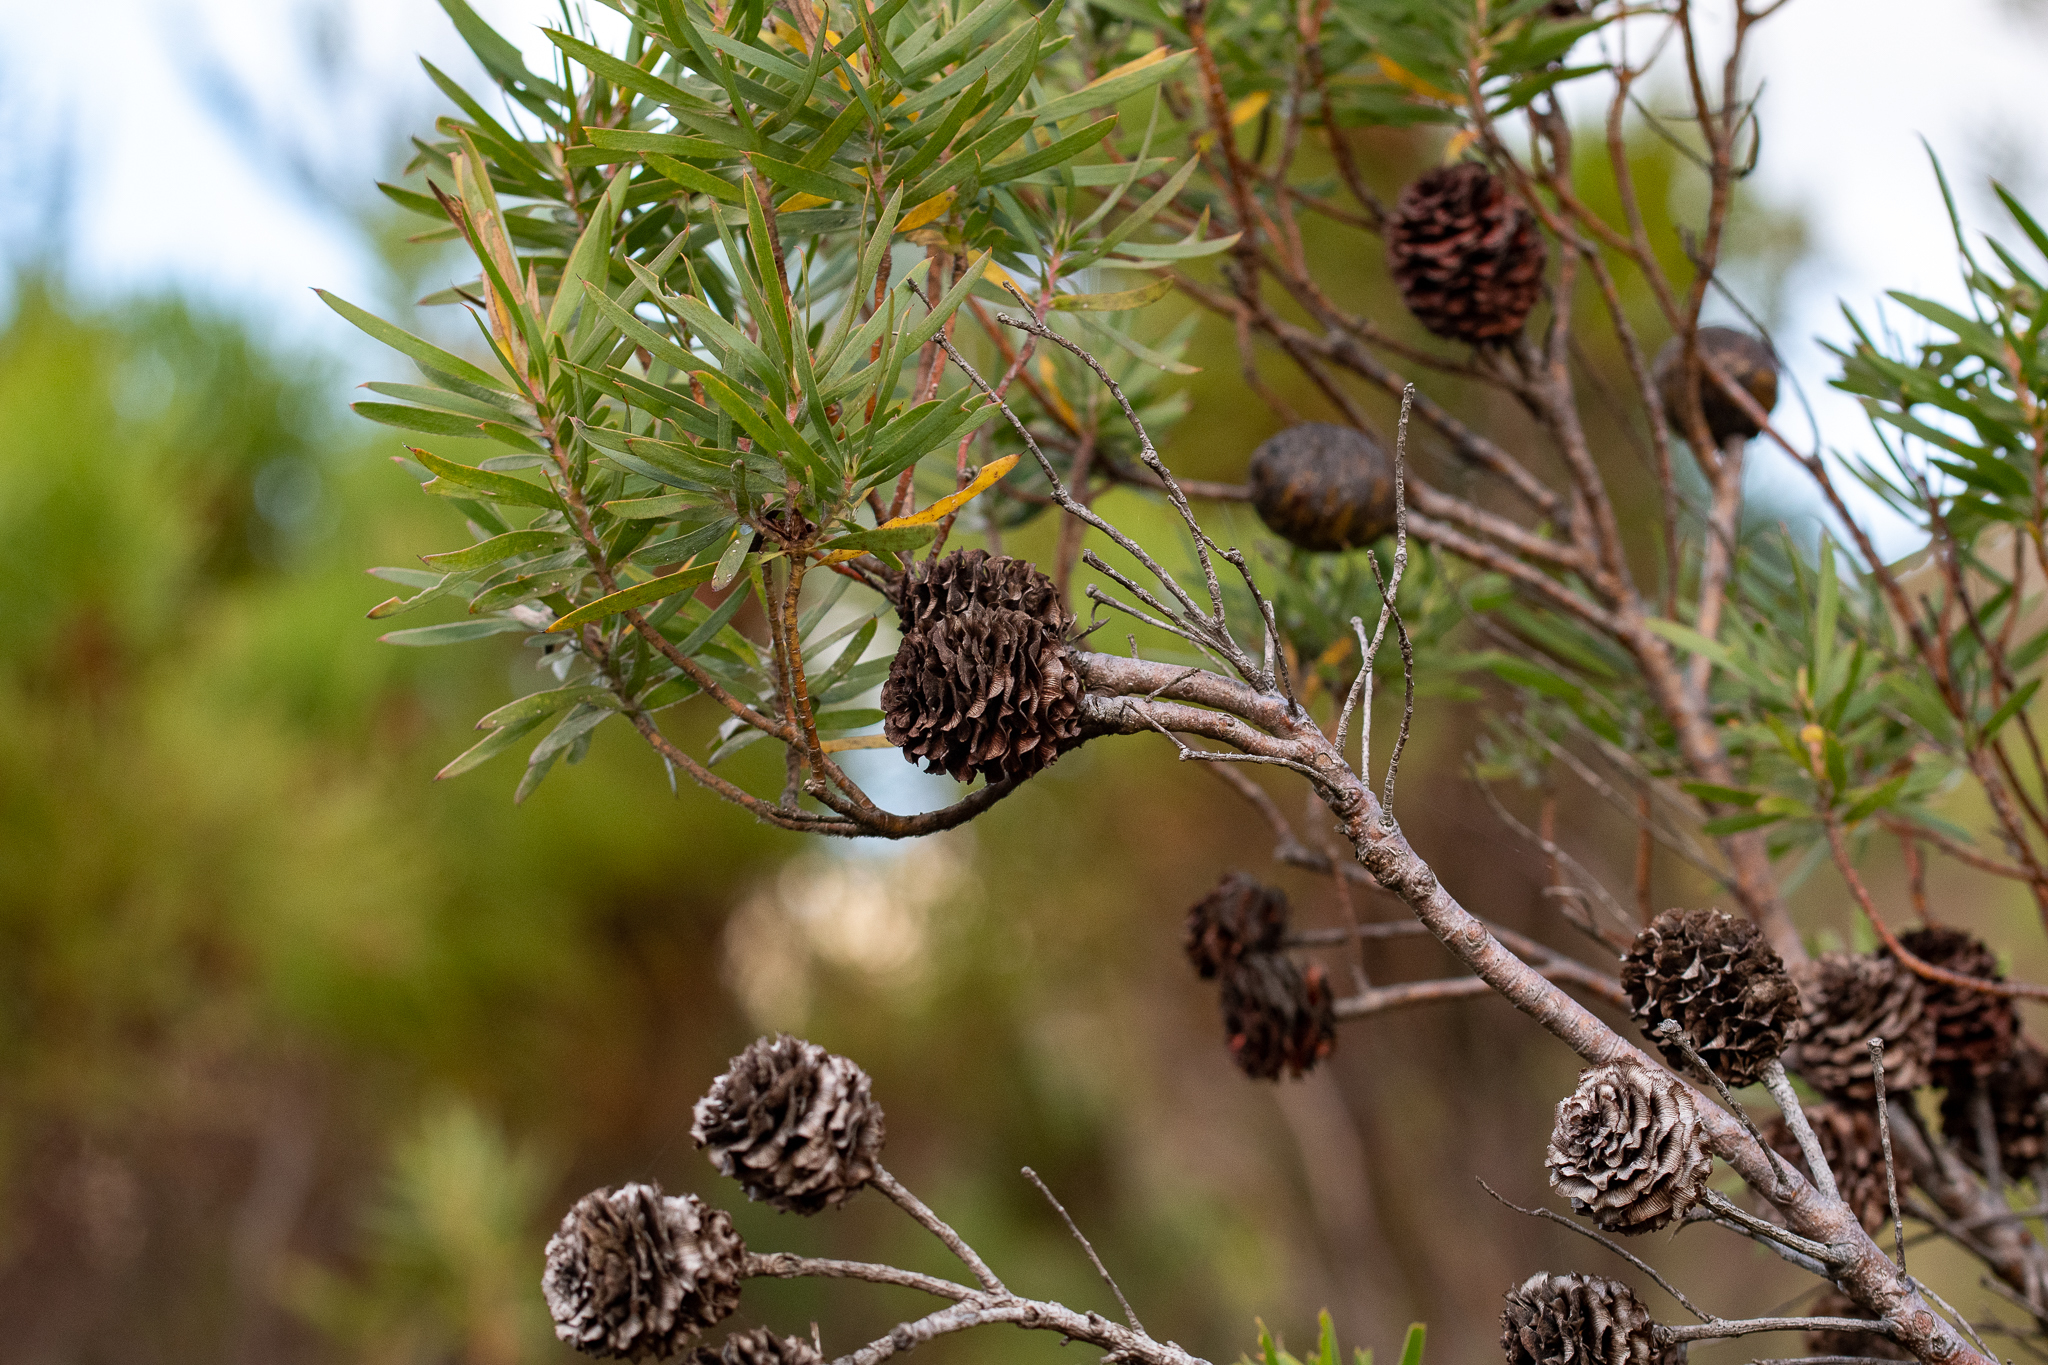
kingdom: Plantae
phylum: Tracheophyta
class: Magnoliopsida
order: Proteales
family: Proteaceae
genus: Leucadendron
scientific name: Leucadendron salicifolium
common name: Common stream conebush
